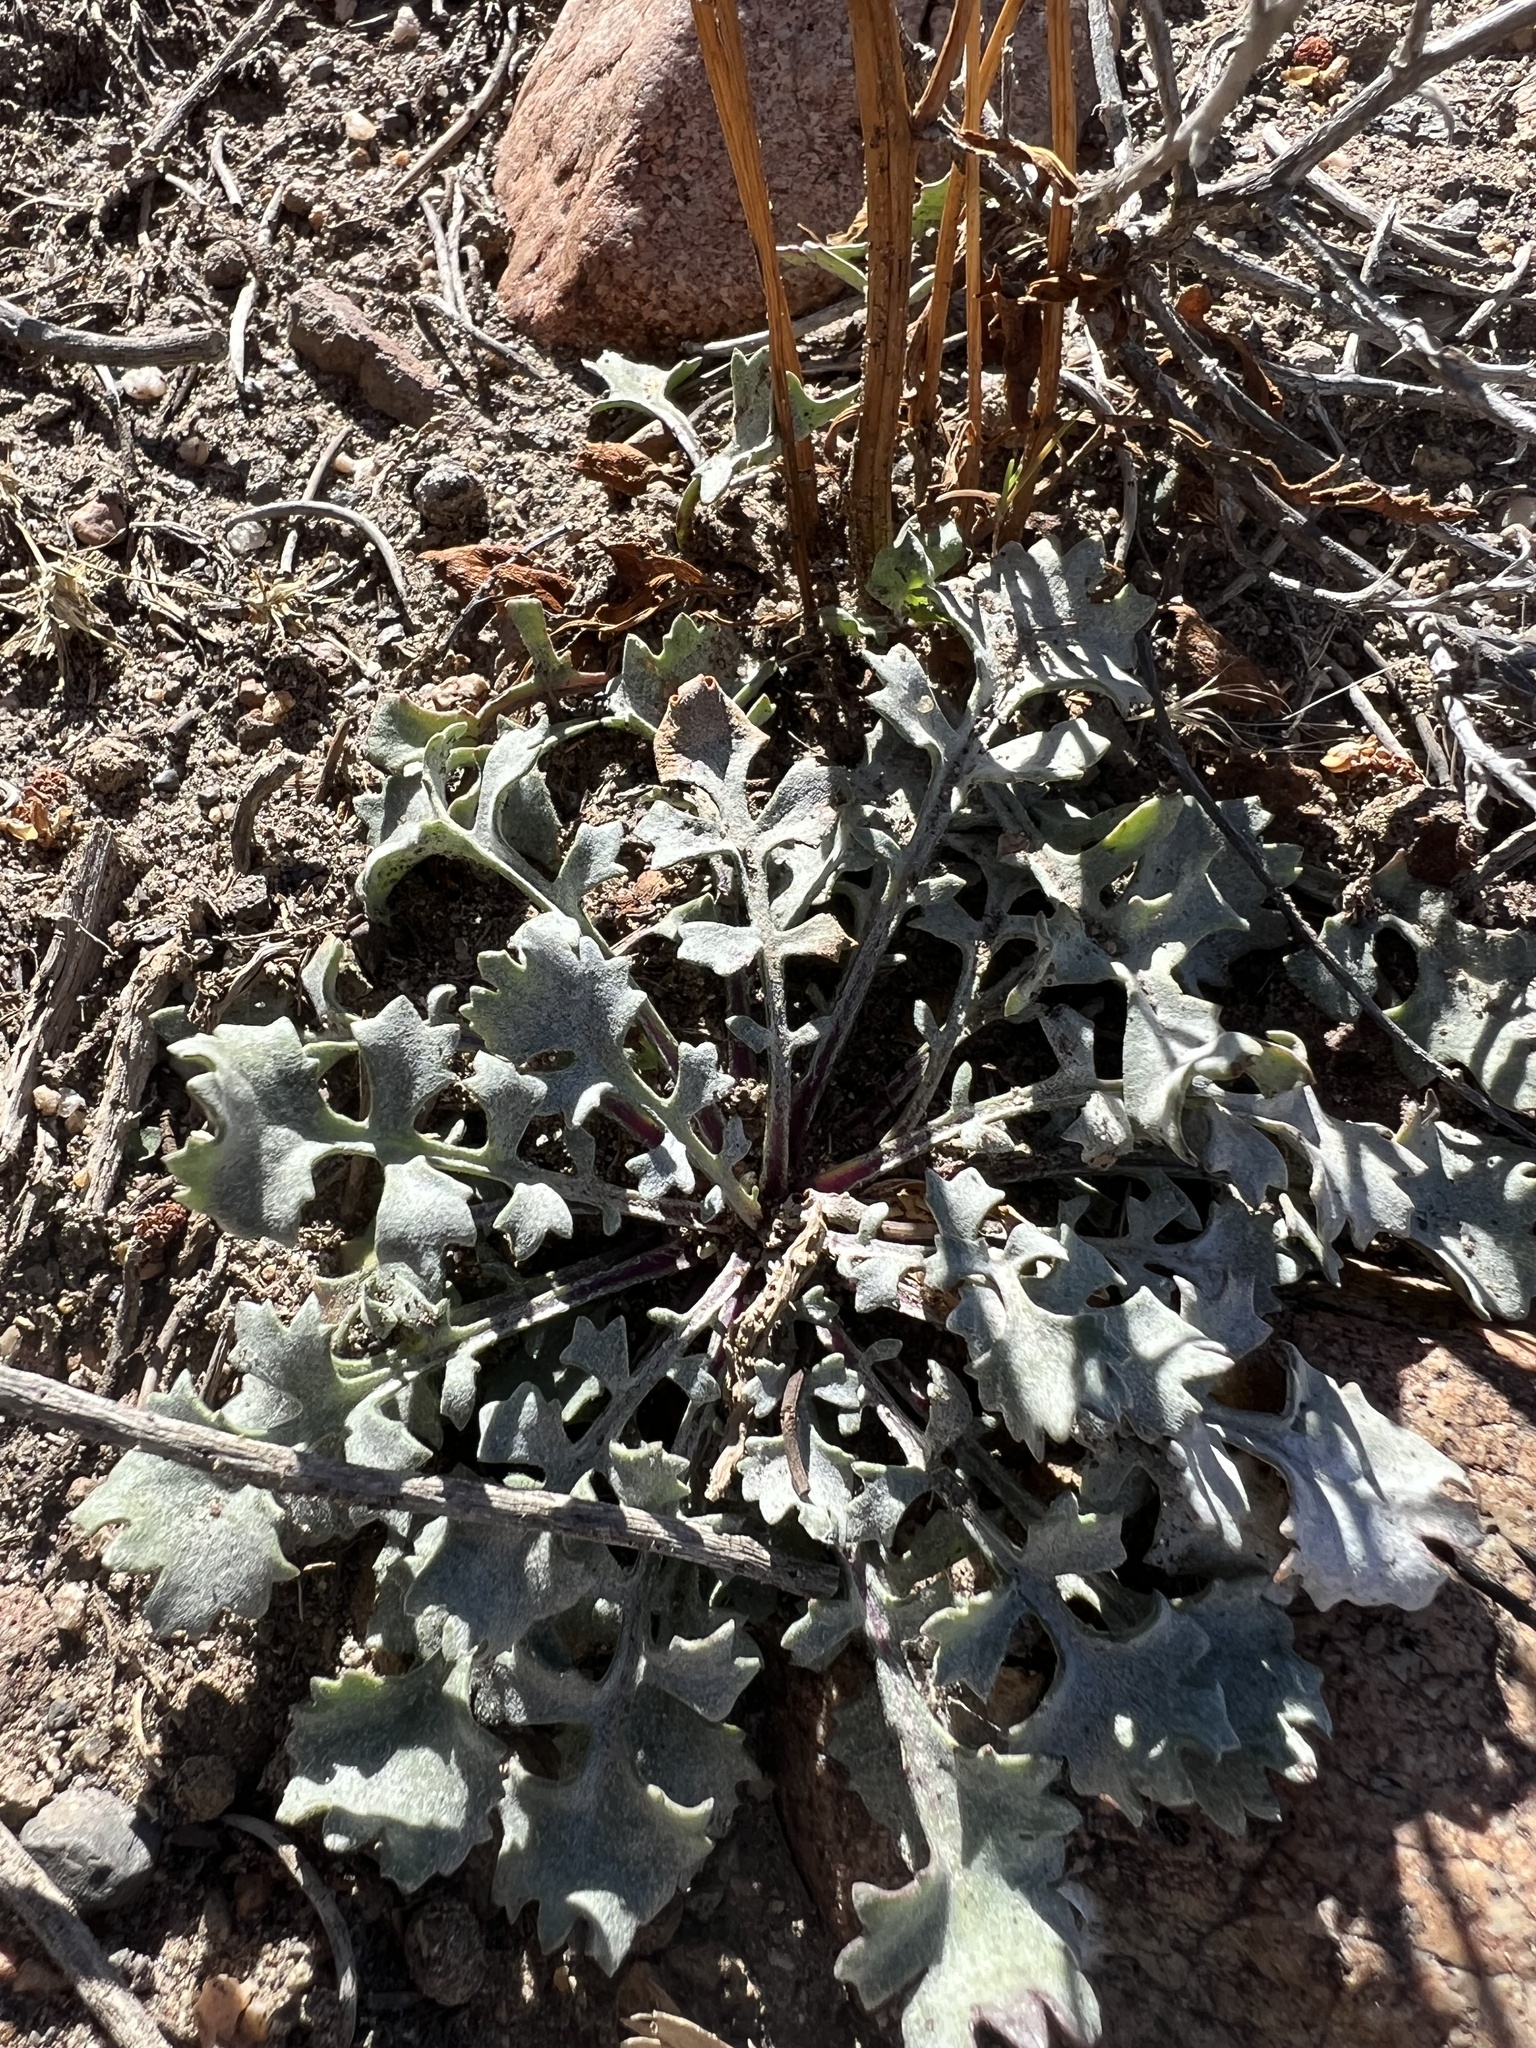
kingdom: Plantae
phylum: Tracheophyta
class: Magnoliopsida
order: Asterales
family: Asteraceae
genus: Packera
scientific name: Packera multilobata
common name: Lobe-leaf groundsel
